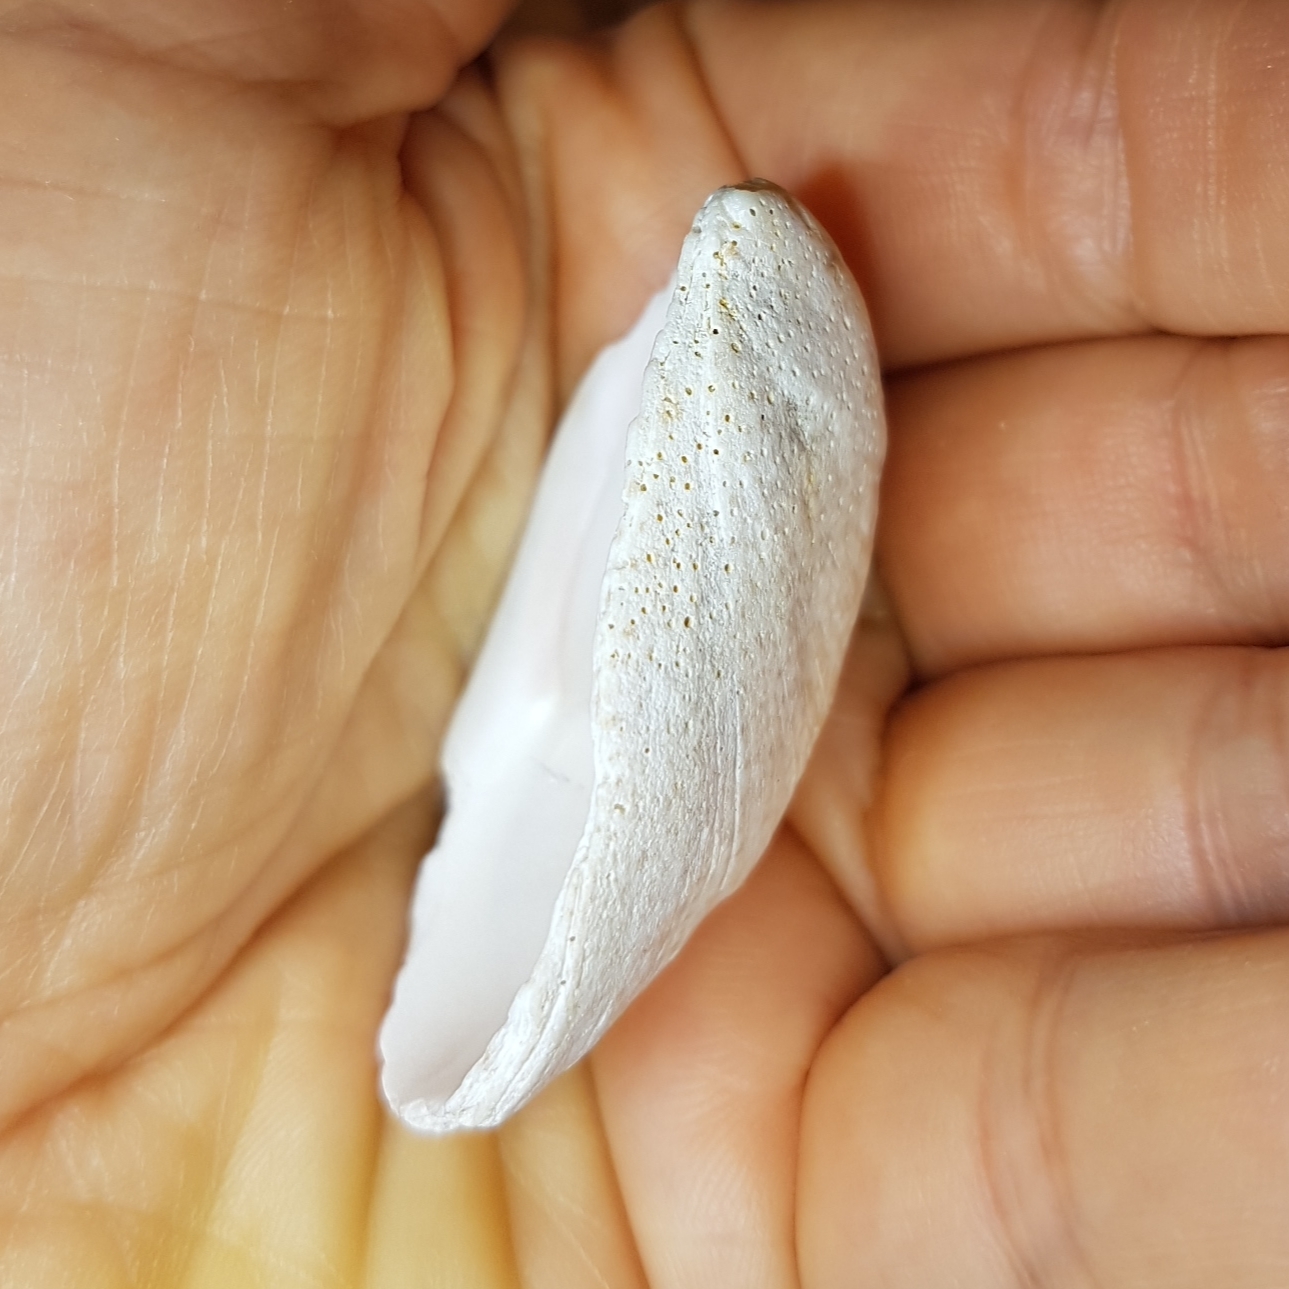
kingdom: Animalia
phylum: Mollusca
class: Gastropoda
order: Littorinimorpha
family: Calyptraeidae
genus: Crepidula
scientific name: Crepidula fornicata
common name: Slipper limpet
